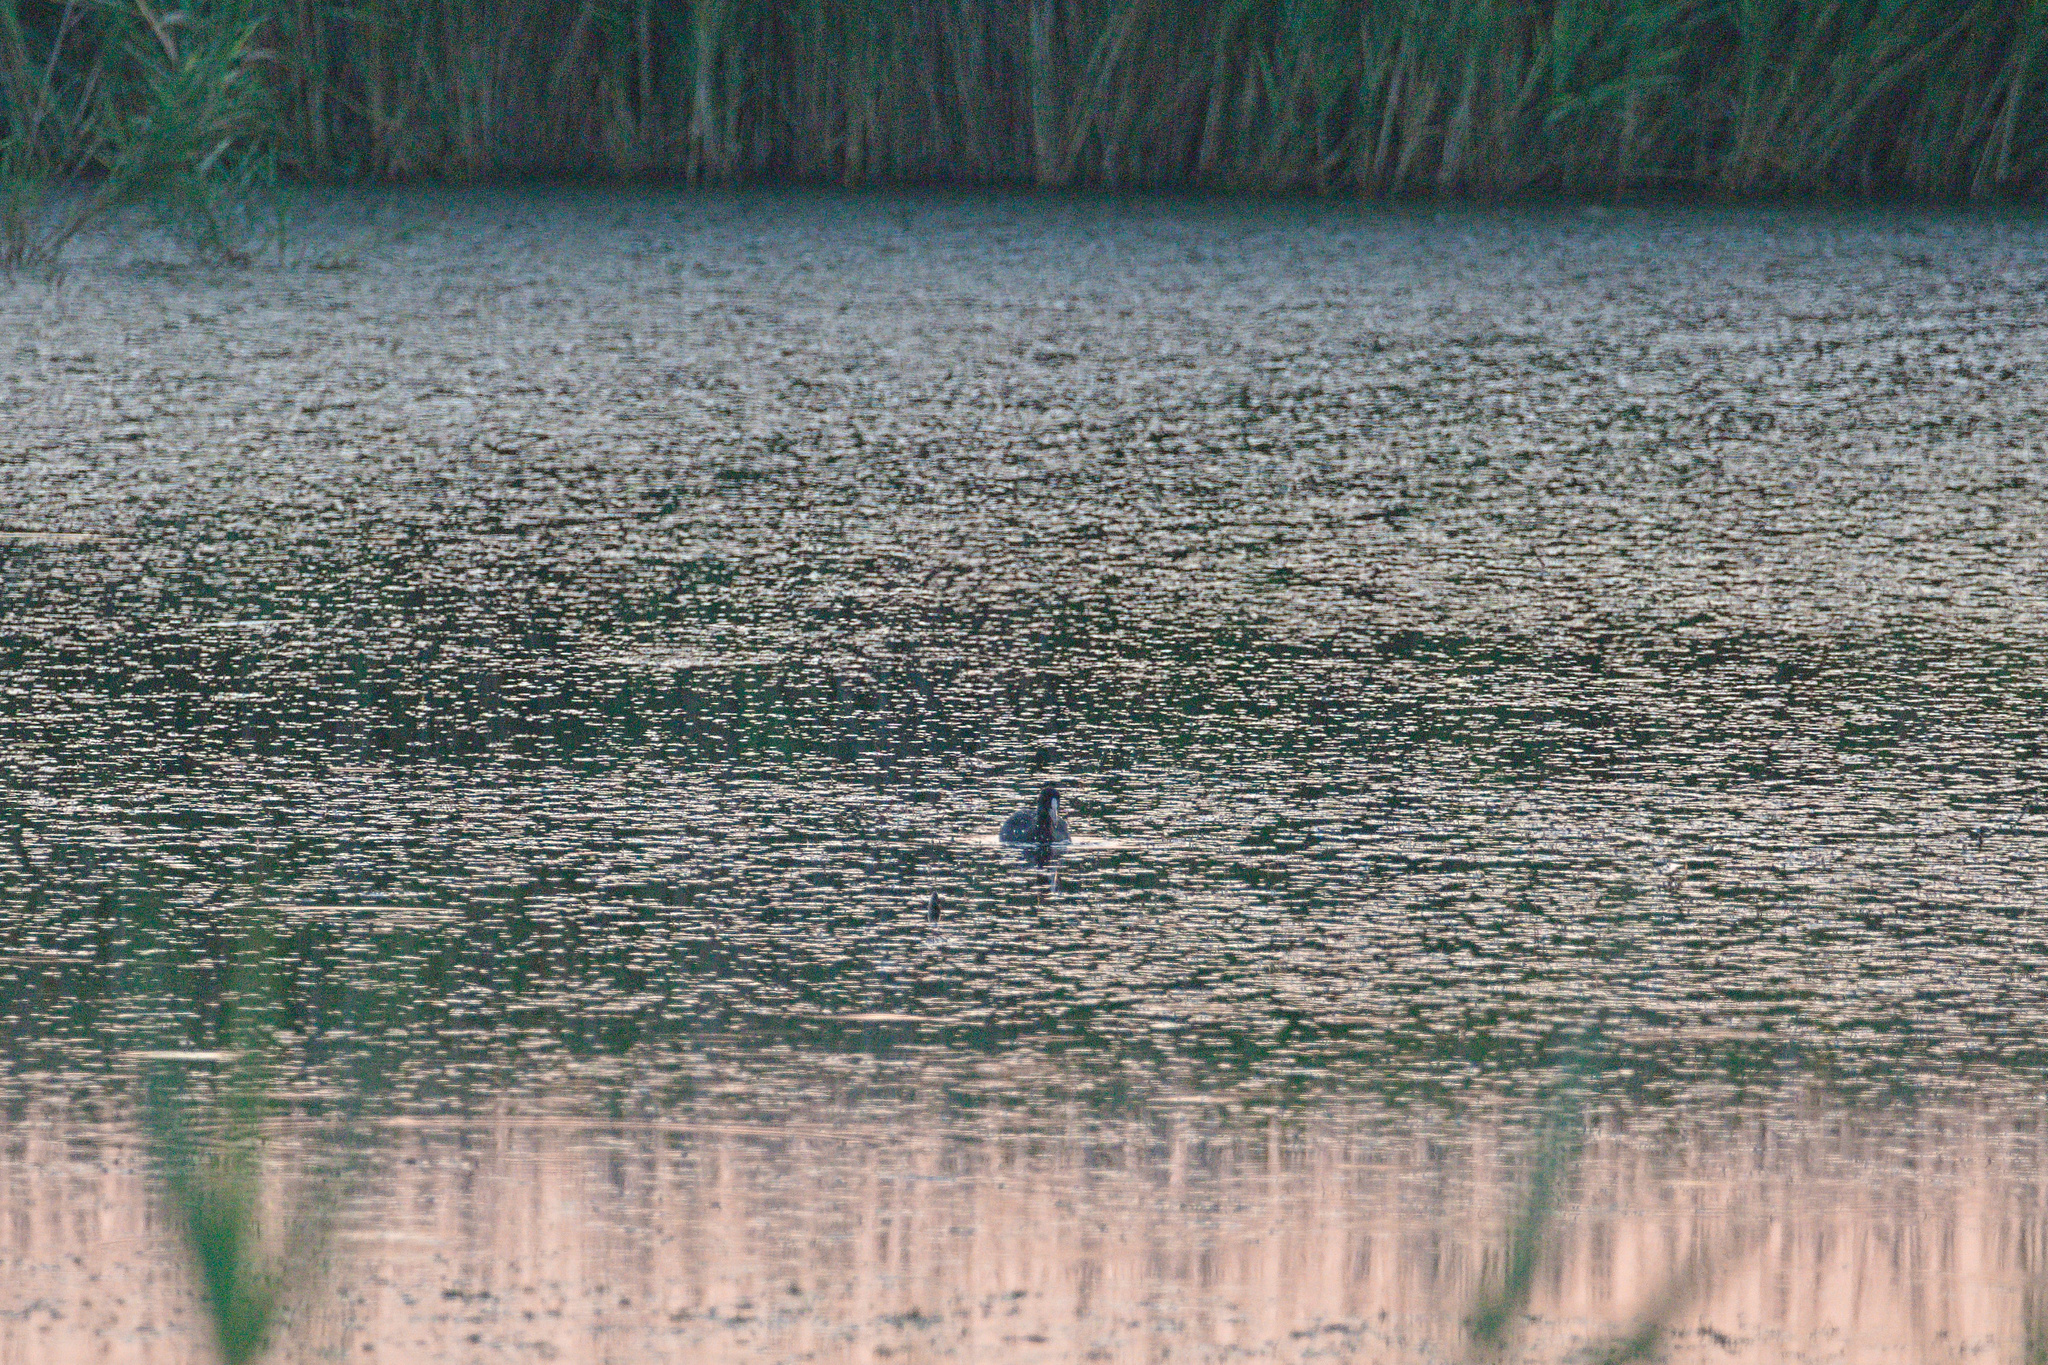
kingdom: Animalia
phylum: Chordata
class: Aves
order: Gruiformes
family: Rallidae
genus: Fulica
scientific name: Fulica atra
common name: Eurasian coot
